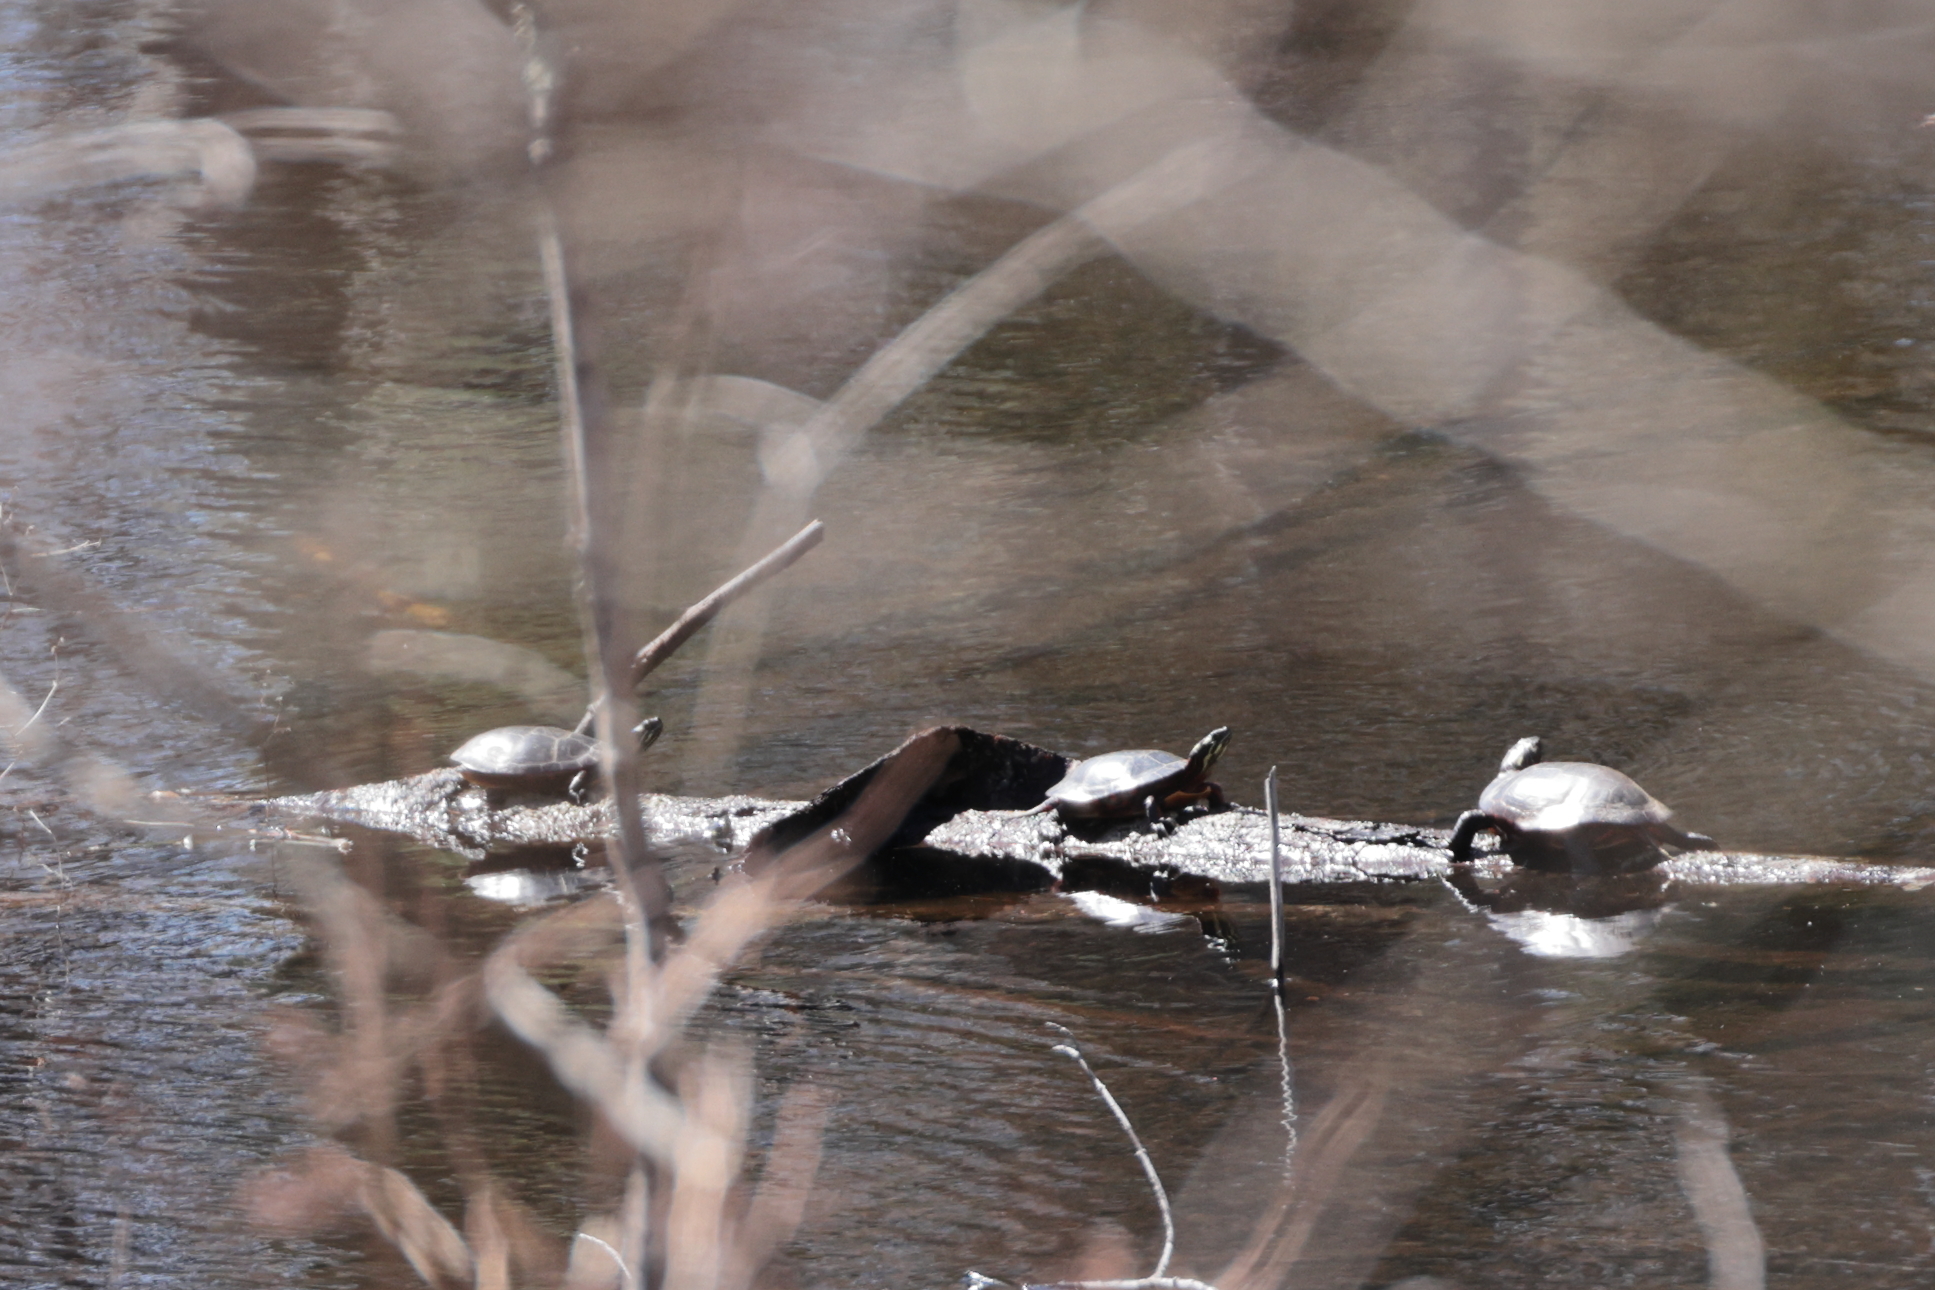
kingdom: Animalia
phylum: Chordata
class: Testudines
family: Emydidae
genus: Chrysemys
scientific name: Chrysemys picta
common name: Painted turtle
